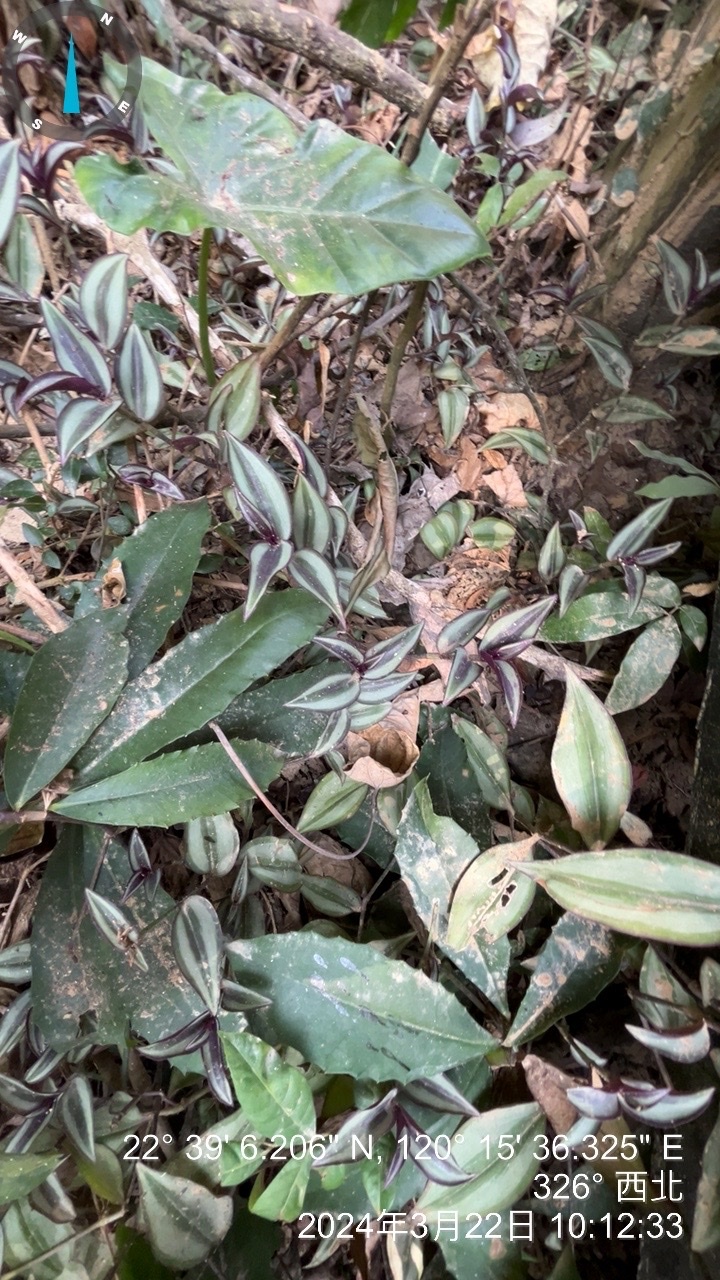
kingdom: Plantae
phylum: Tracheophyta
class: Liliopsida
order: Commelinales
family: Commelinaceae
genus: Tradescantia
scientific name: Tradescantia zebrina
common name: Inchplant
